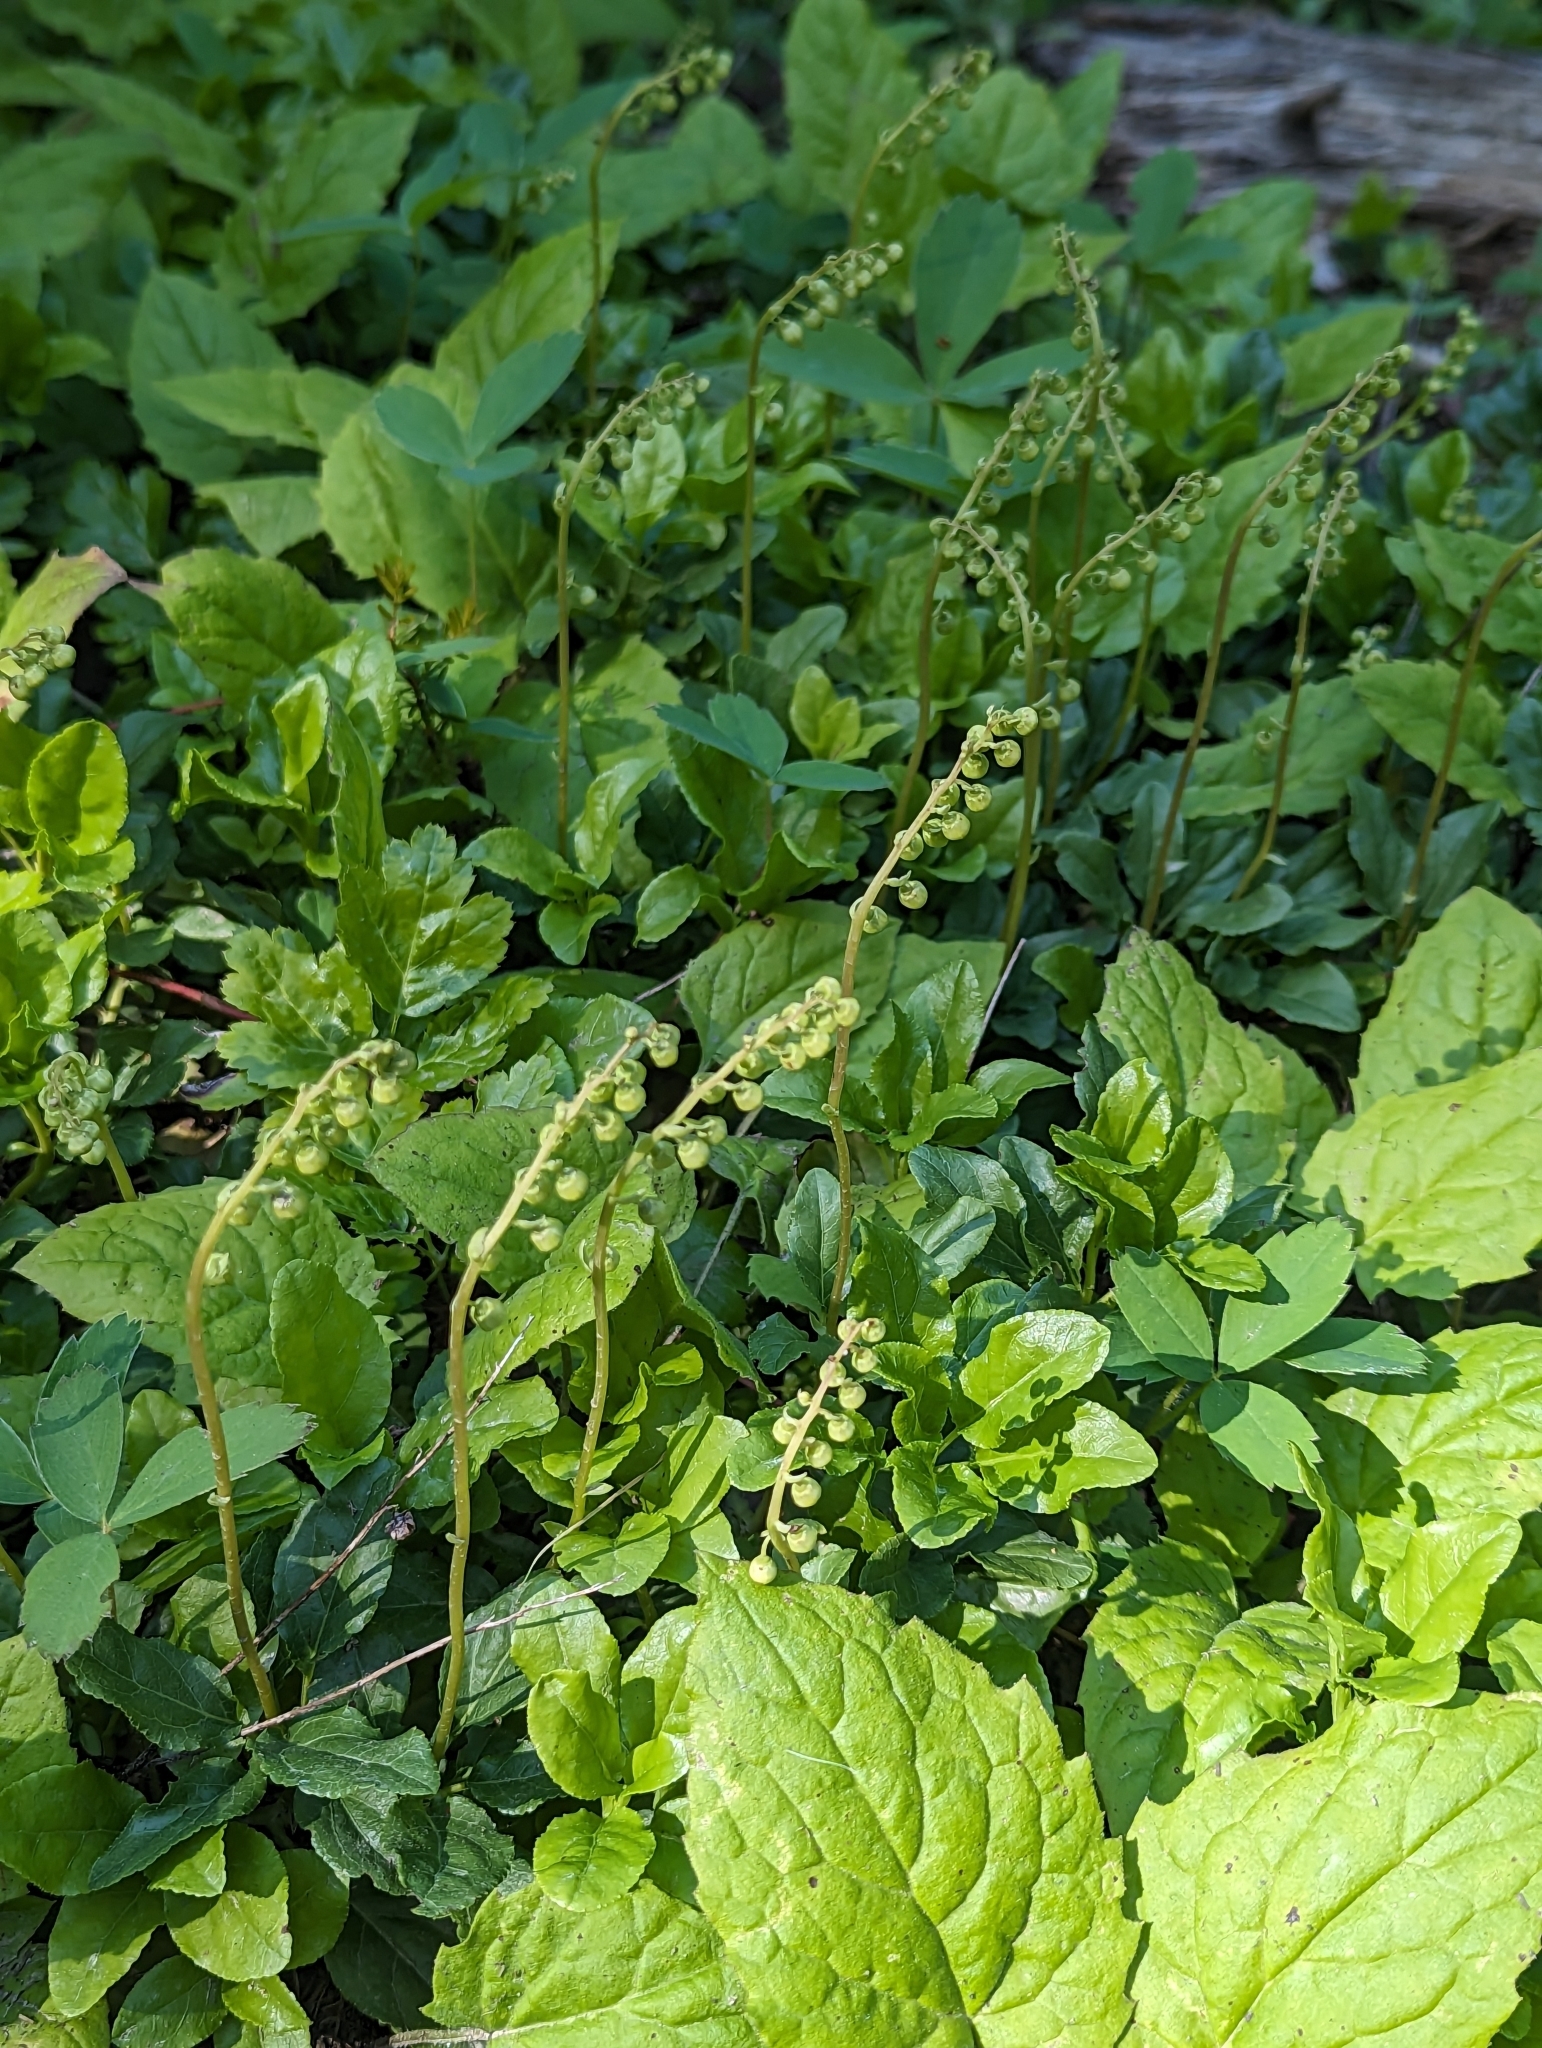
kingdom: Plantae
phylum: Tracheophyta
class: Magnoliopsida
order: Ericales
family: Ericaceae
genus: Orthilia
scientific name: Orthilia secunda
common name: One-sided orthilia
